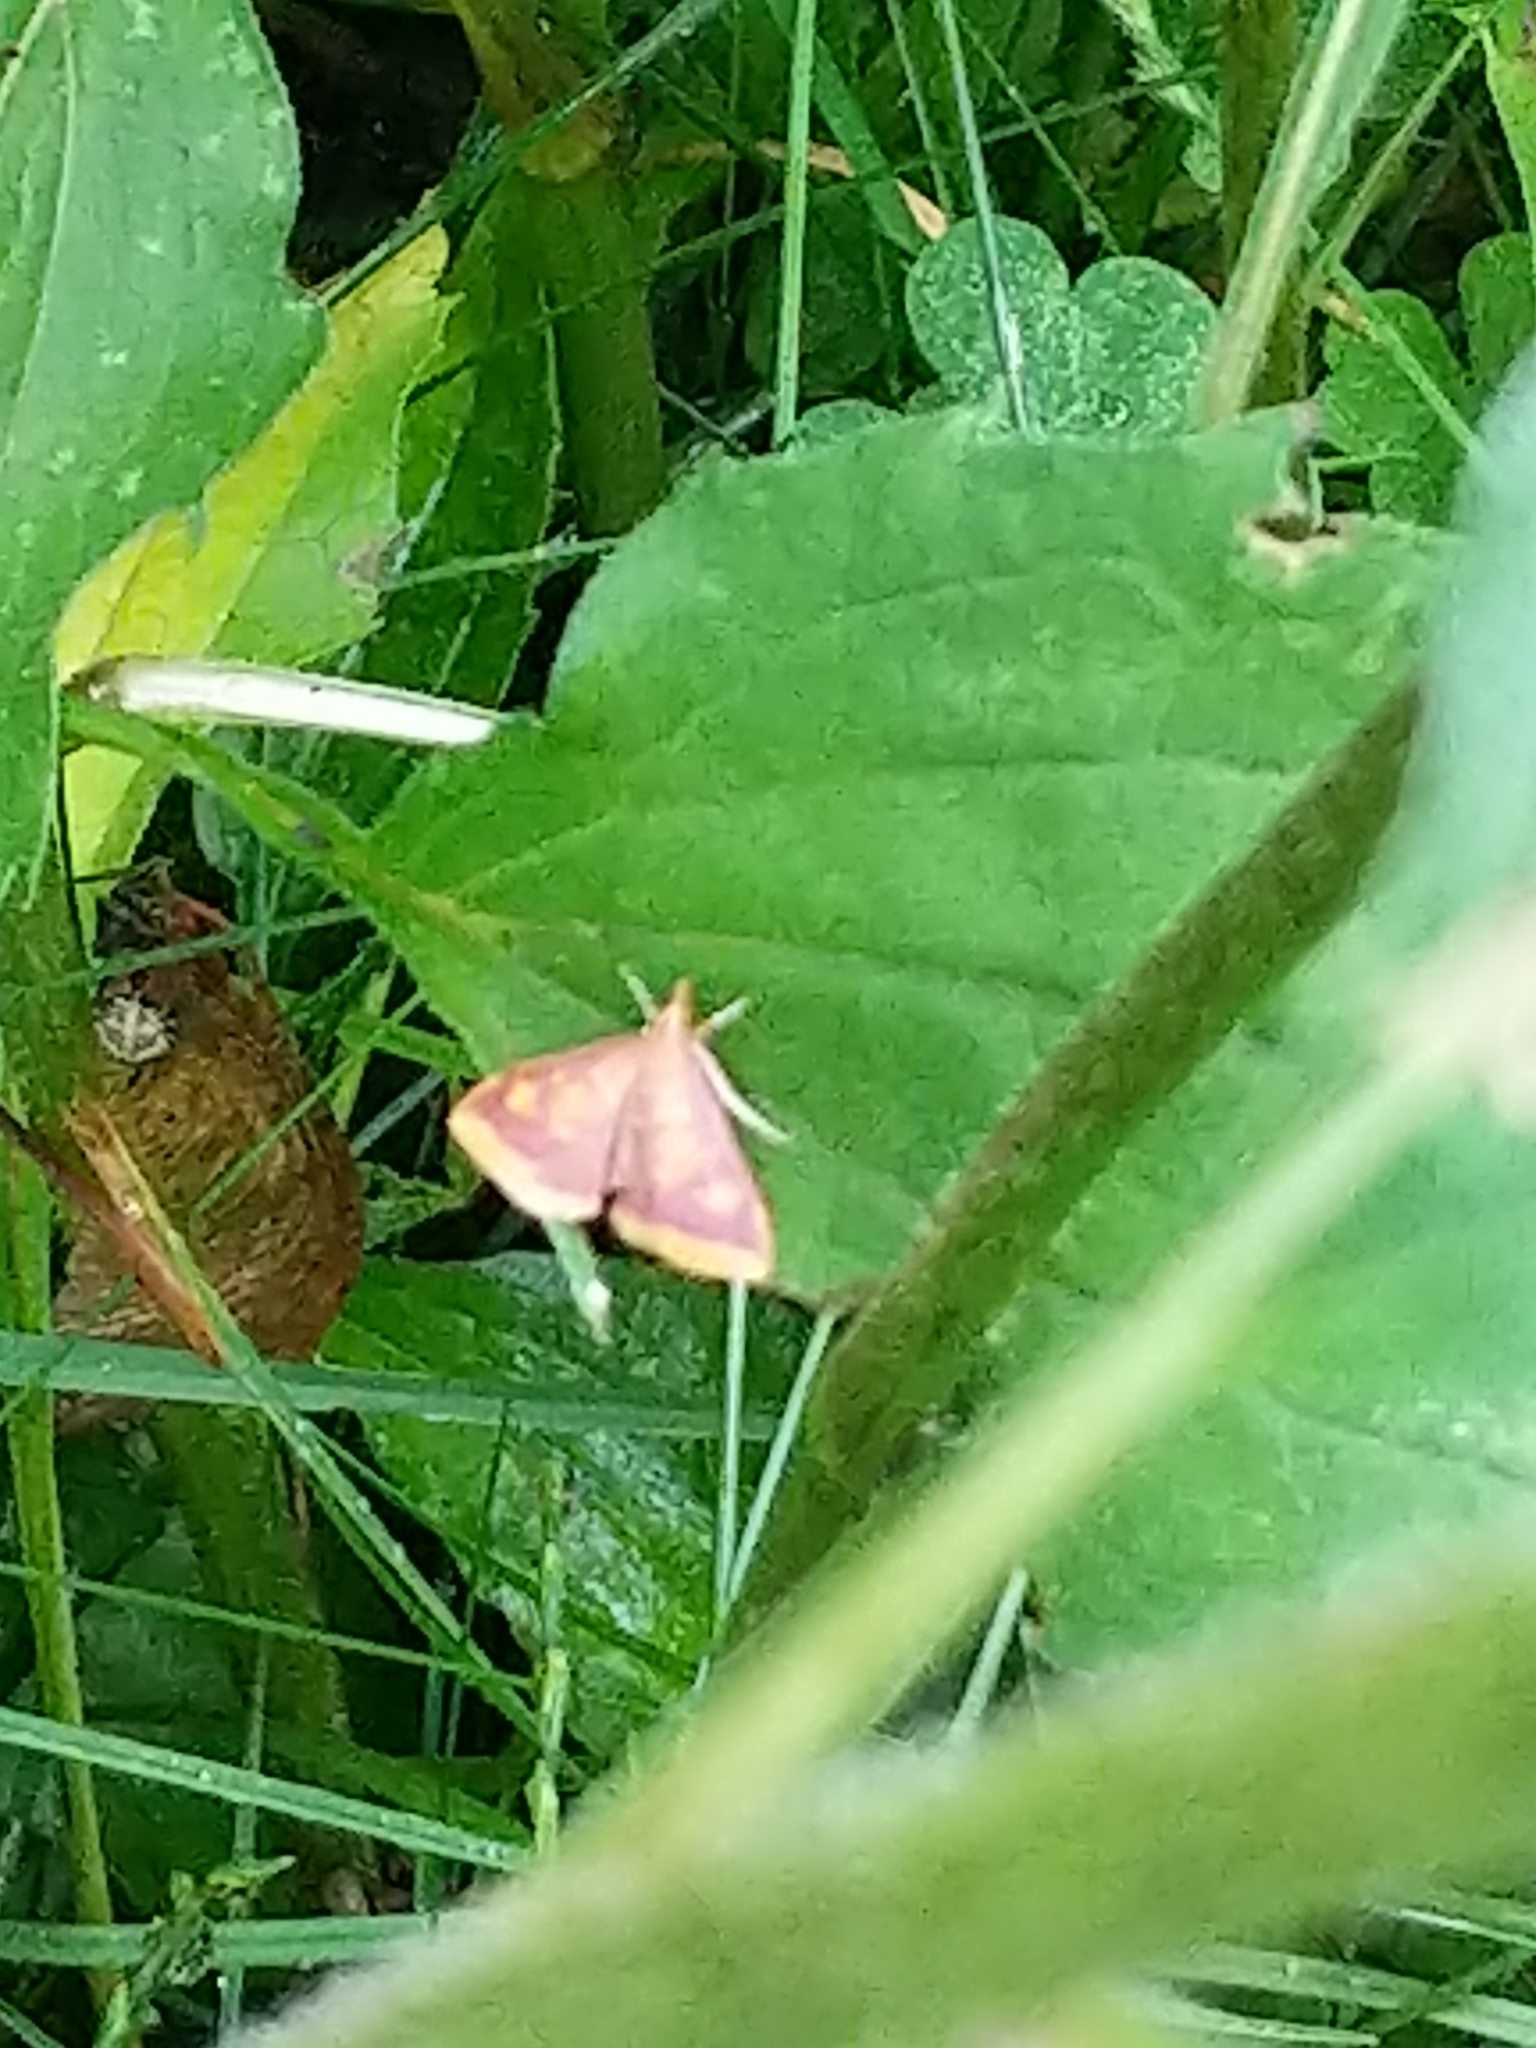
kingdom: Animalia
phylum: Arthropoda
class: Insecta
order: Lepidoptera
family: Crambidae
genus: Pyrausta
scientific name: Pyrausta acrionalis
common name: Mint-loving pyrausta moth
